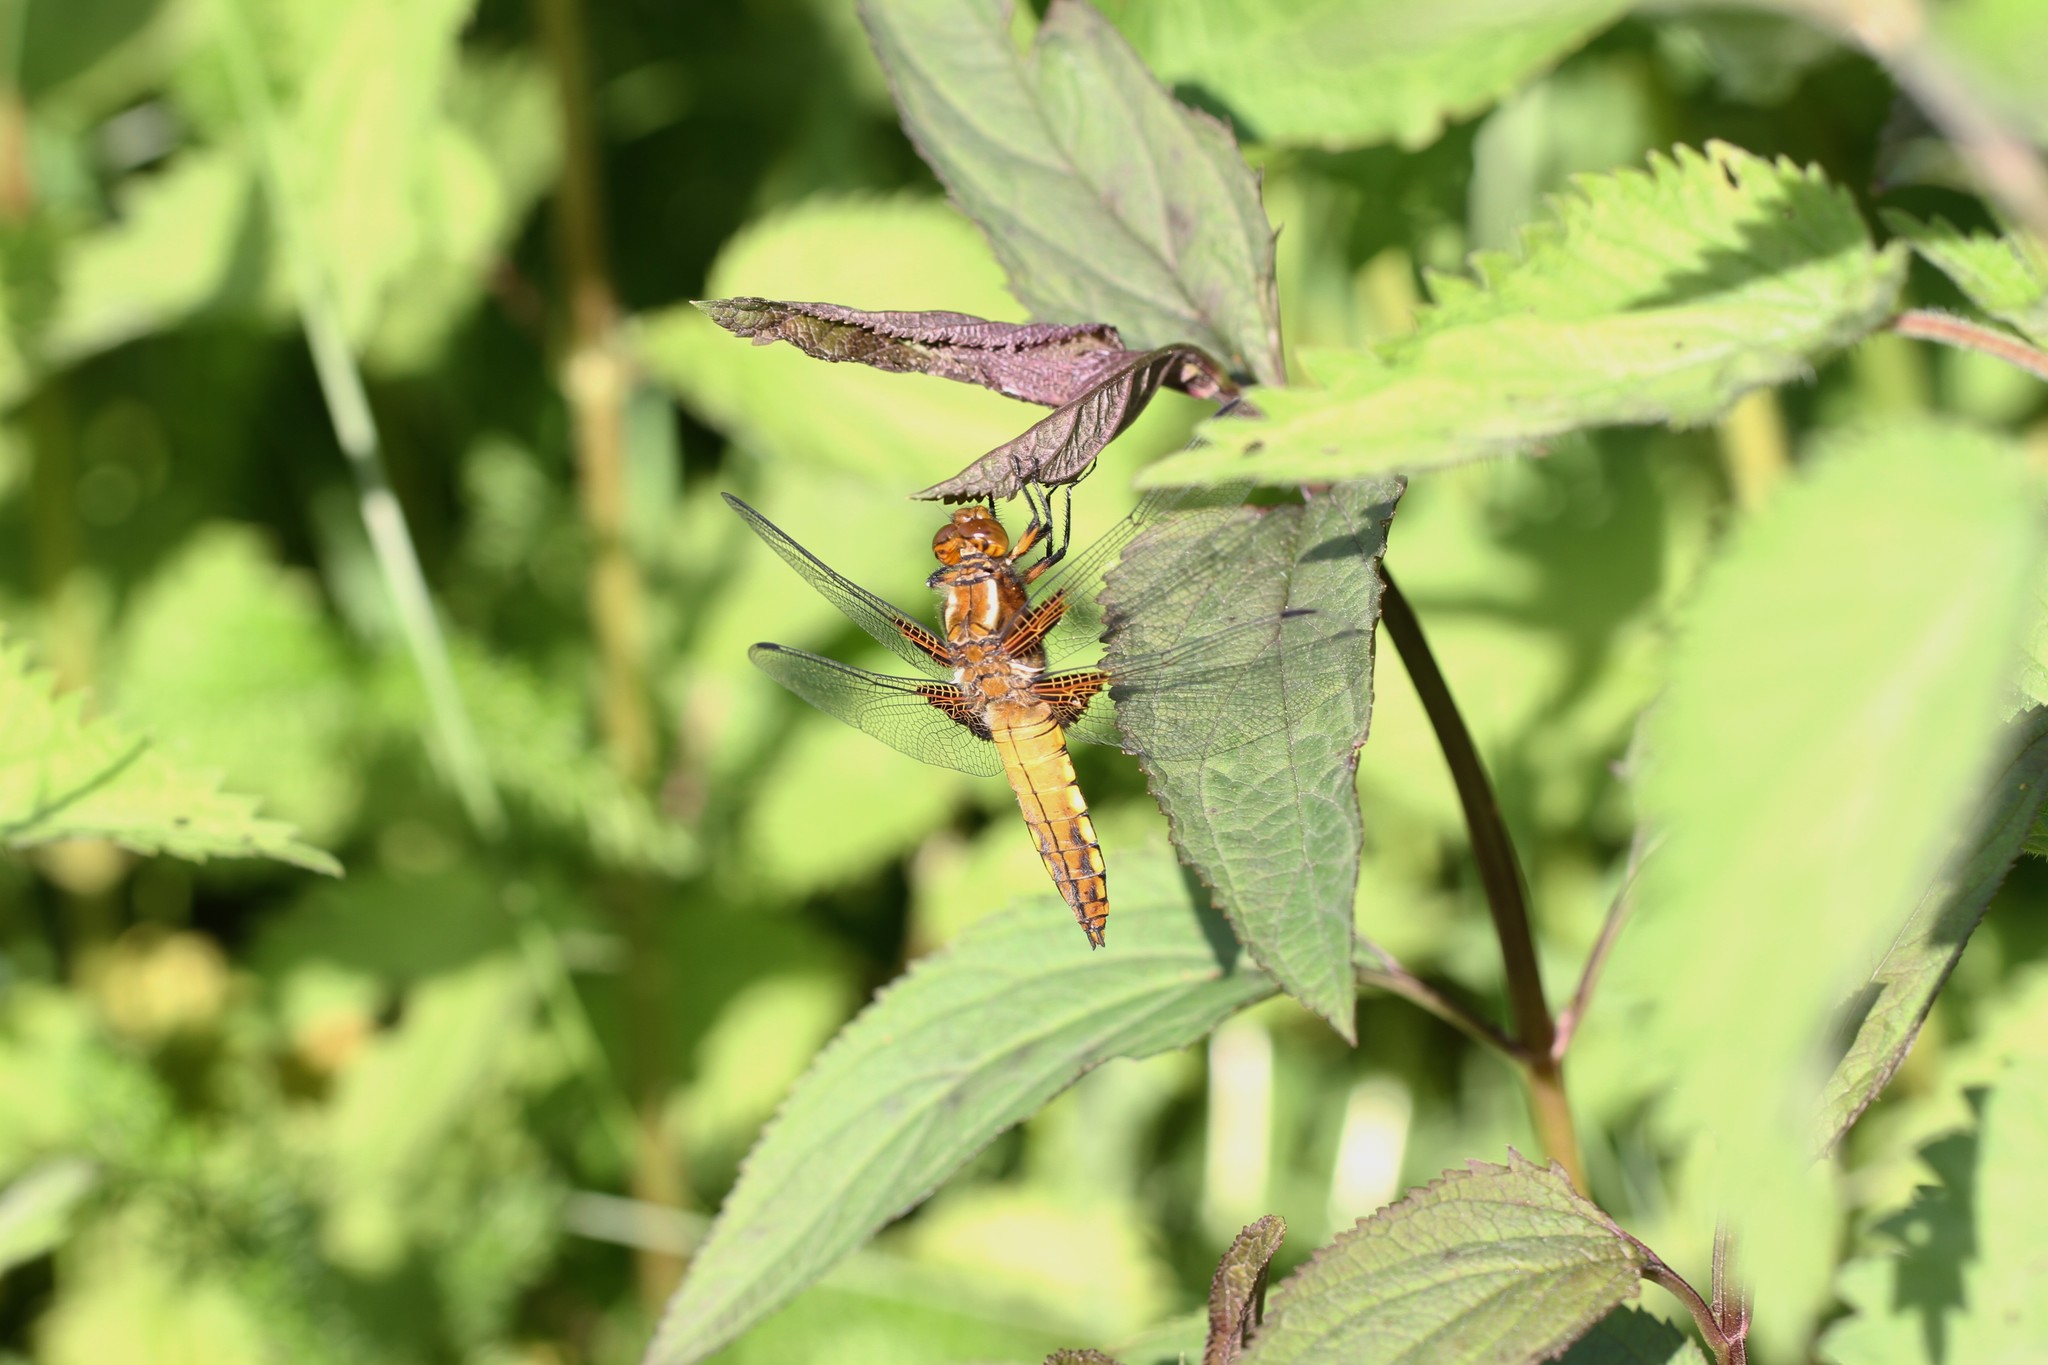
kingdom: Animalia
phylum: Arthropoda
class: Insecta
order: Odonata
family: Libellulidae
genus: Libellula
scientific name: Libellula depressa
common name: Broad-bodied chaser
